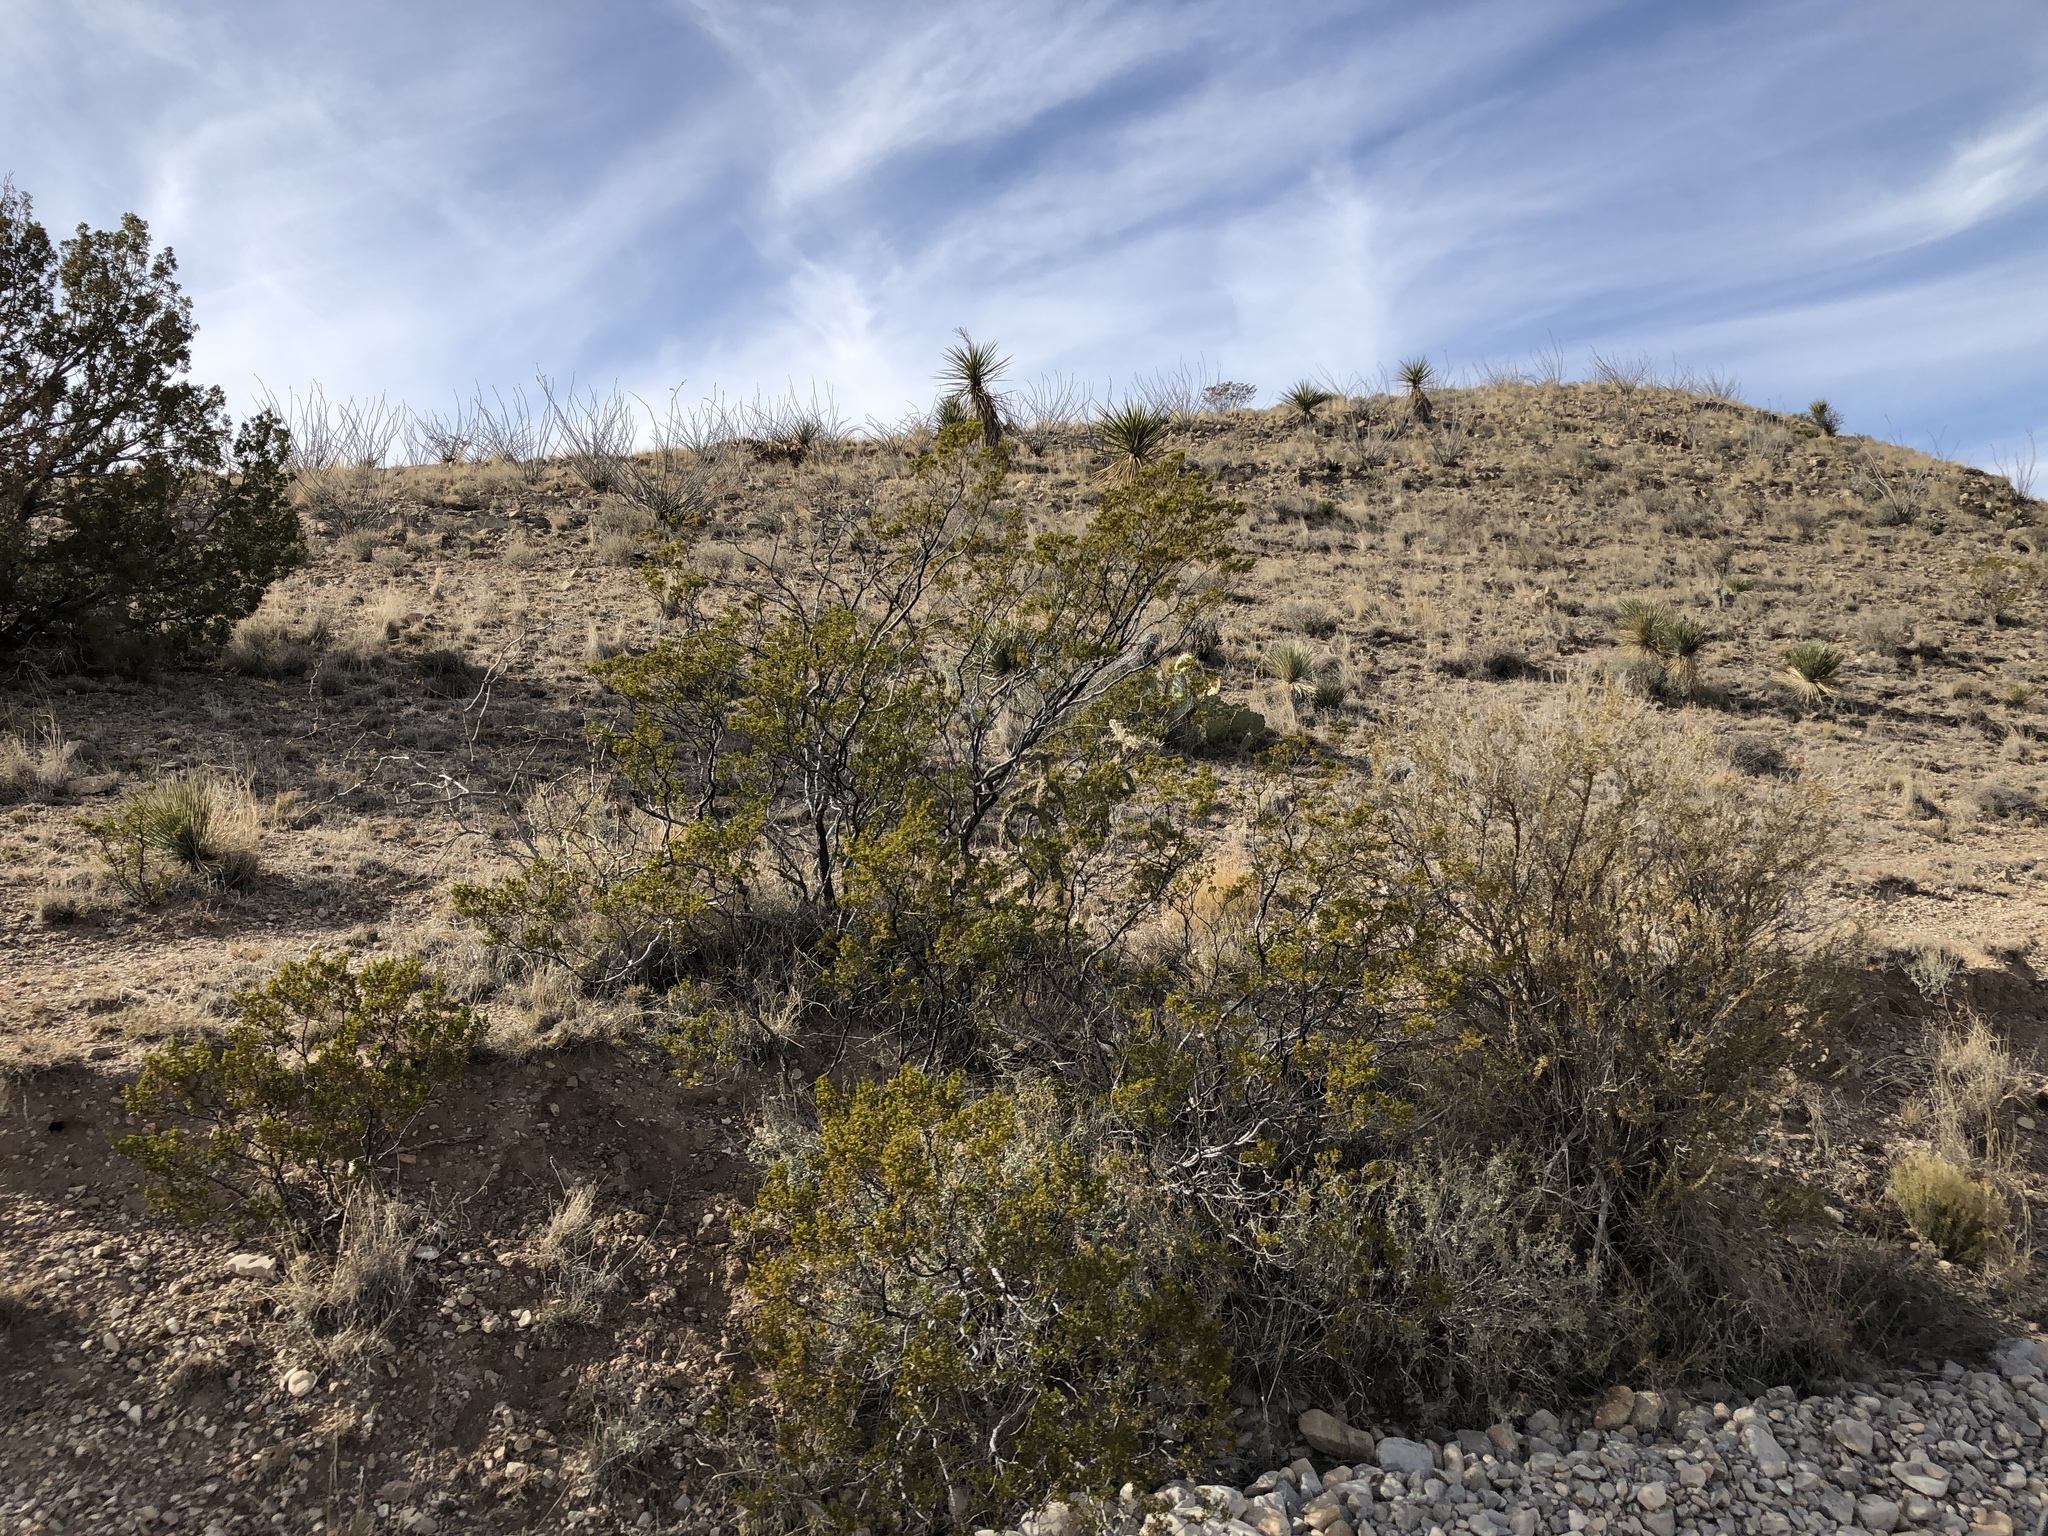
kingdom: Plantae
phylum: Tracheophyta
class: Magnoliopsida
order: Zygophyllales
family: Zygophyllaceae
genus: Larrea
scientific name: Larrea tridentata
